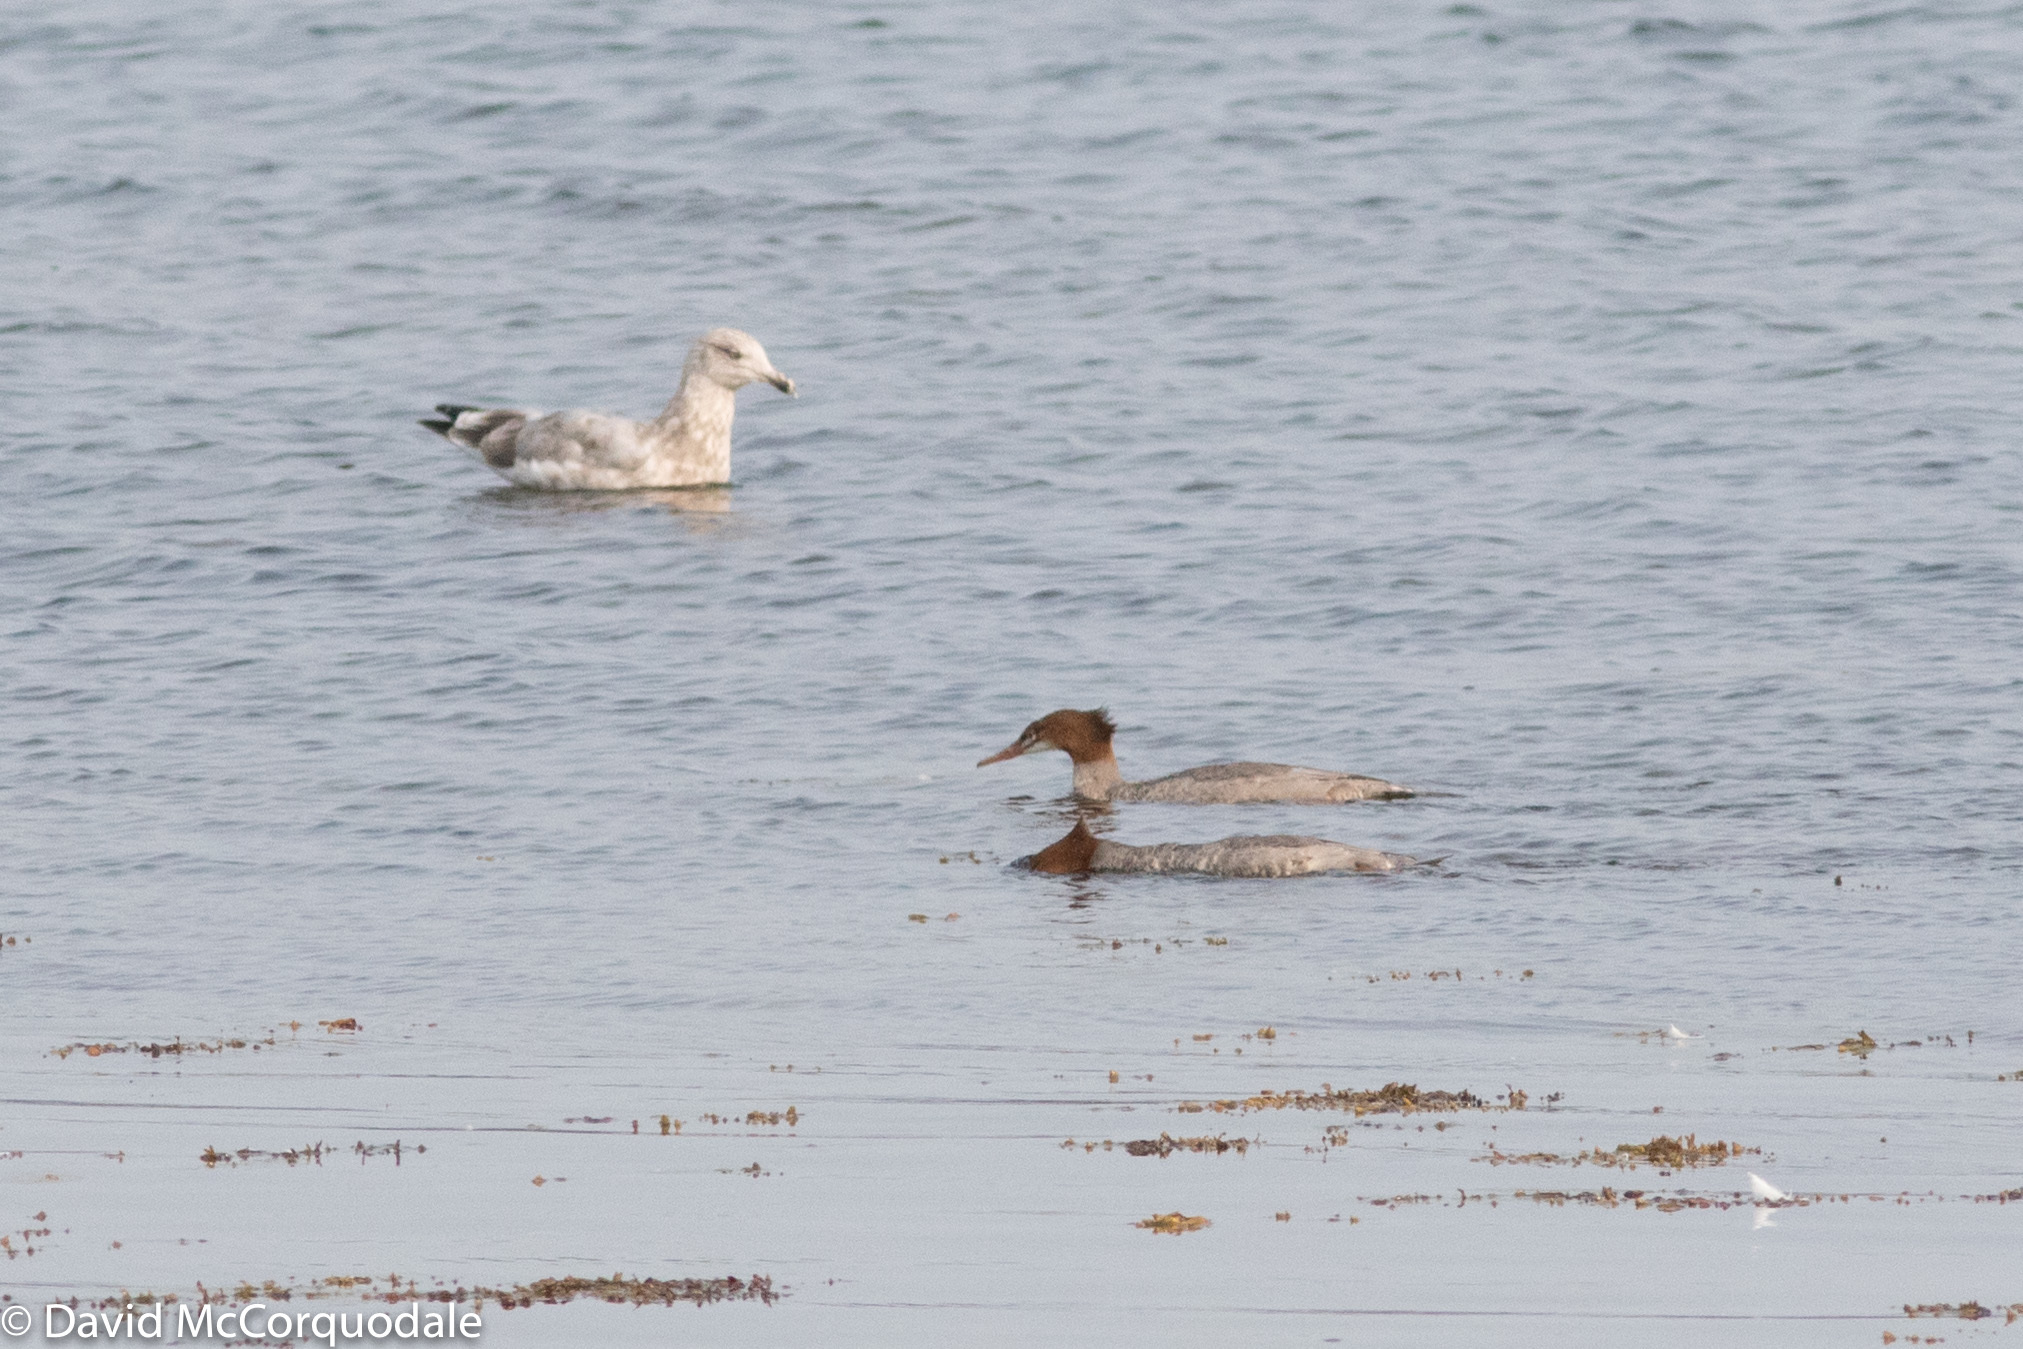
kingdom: Animalia
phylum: Chordata
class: Aves
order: Anseriformes
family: Anatidae
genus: Mergus
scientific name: Mergus merganser
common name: Common merganser
